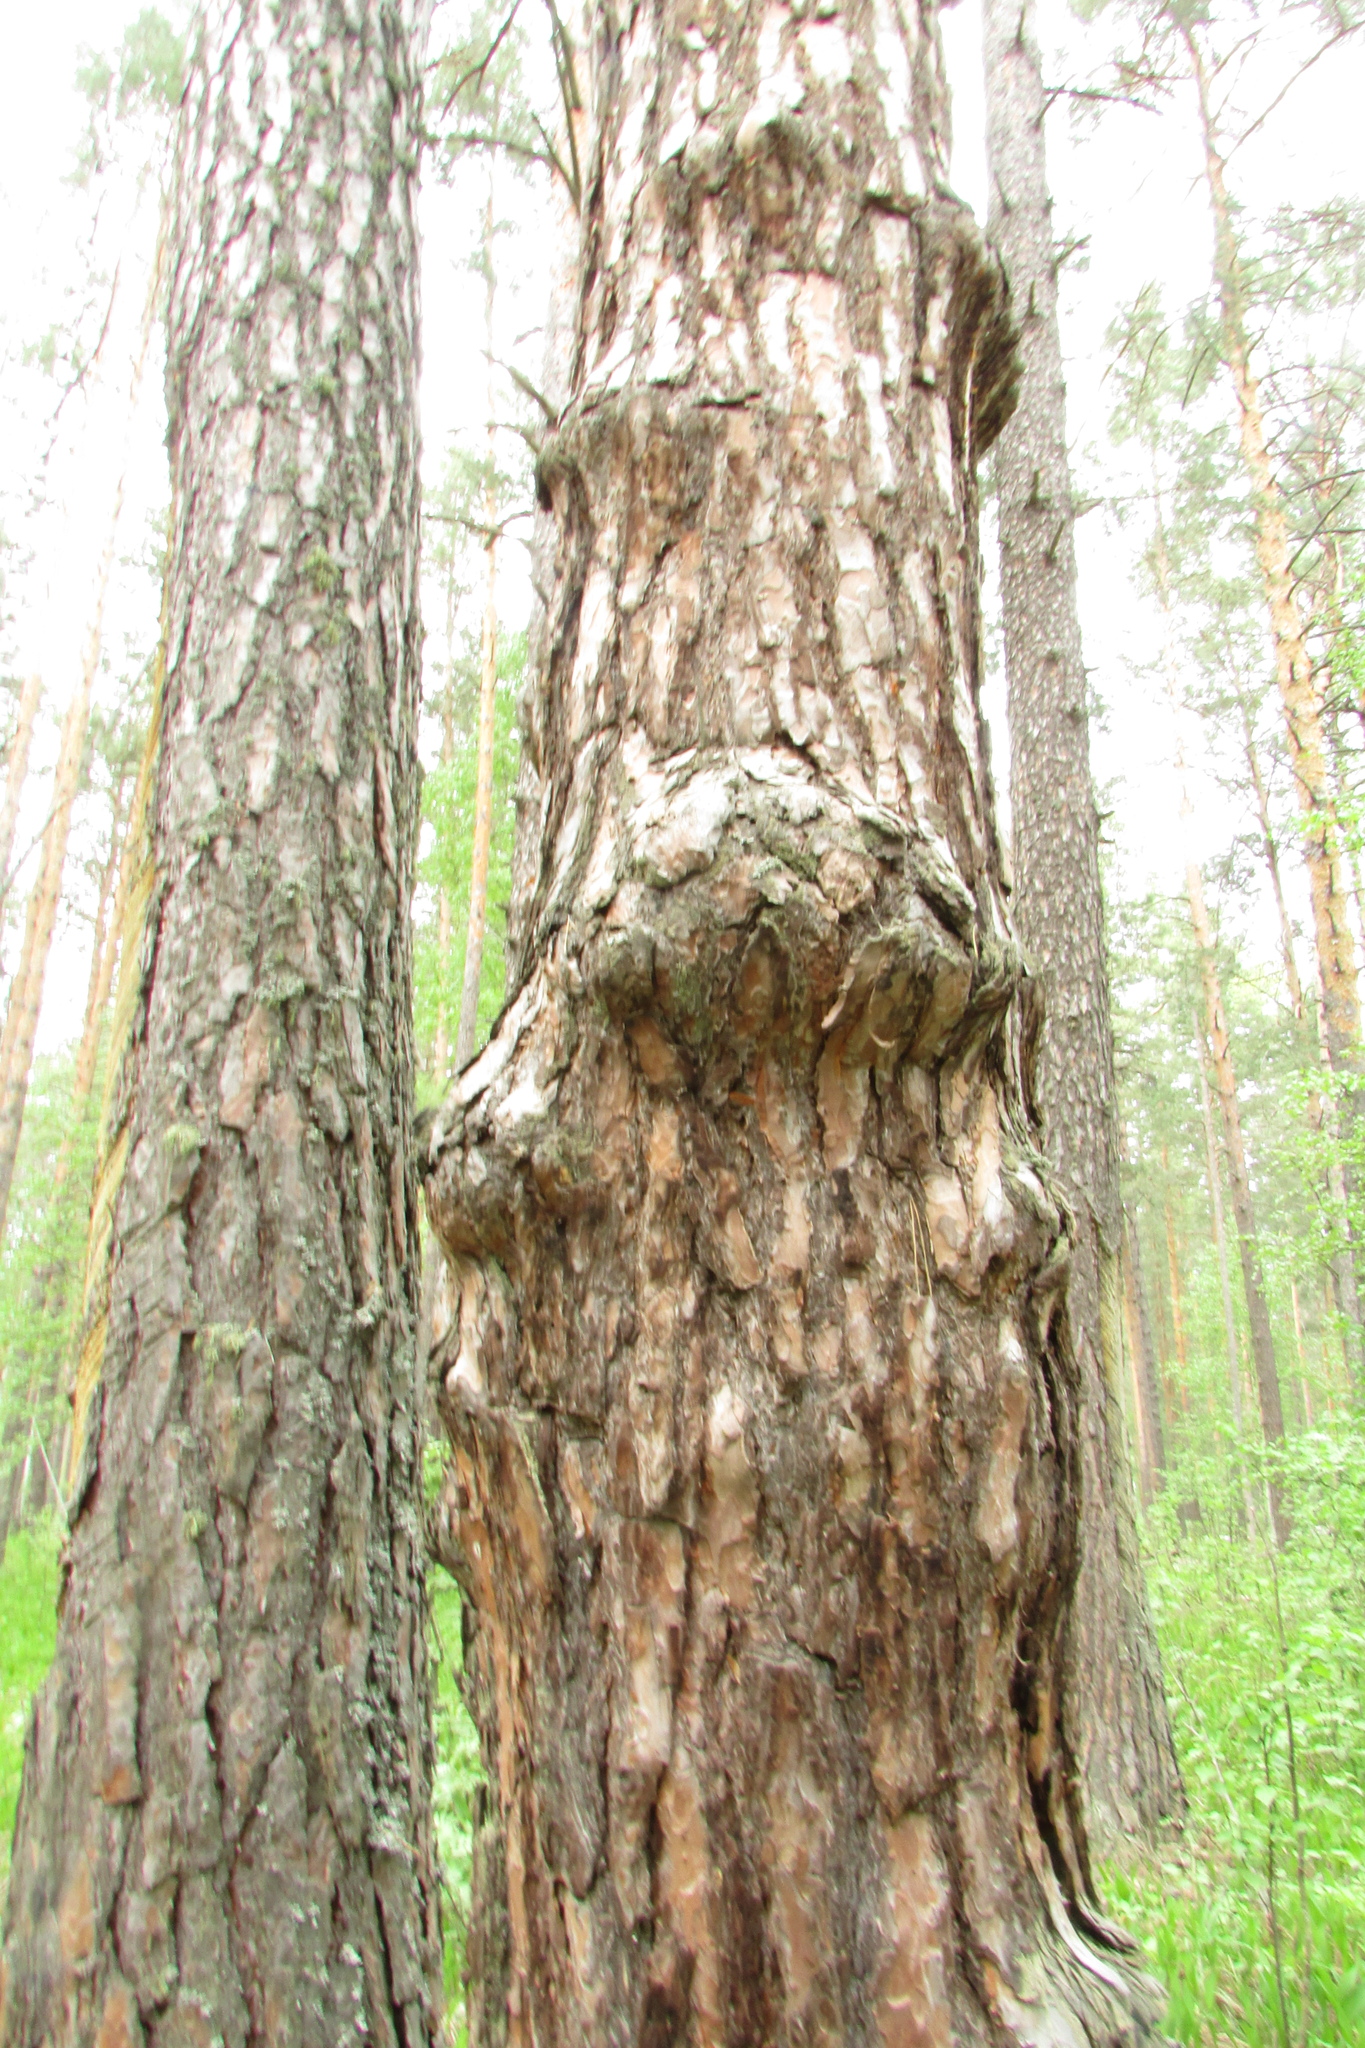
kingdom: Bacteria
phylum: Proteobacteria
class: Alphaproteobacteria
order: Rhizobiales
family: Rhizobiaceae
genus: Rhizobium
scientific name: Rhizobium Agrobacterium radiobacter
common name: Bacterial crown gall
